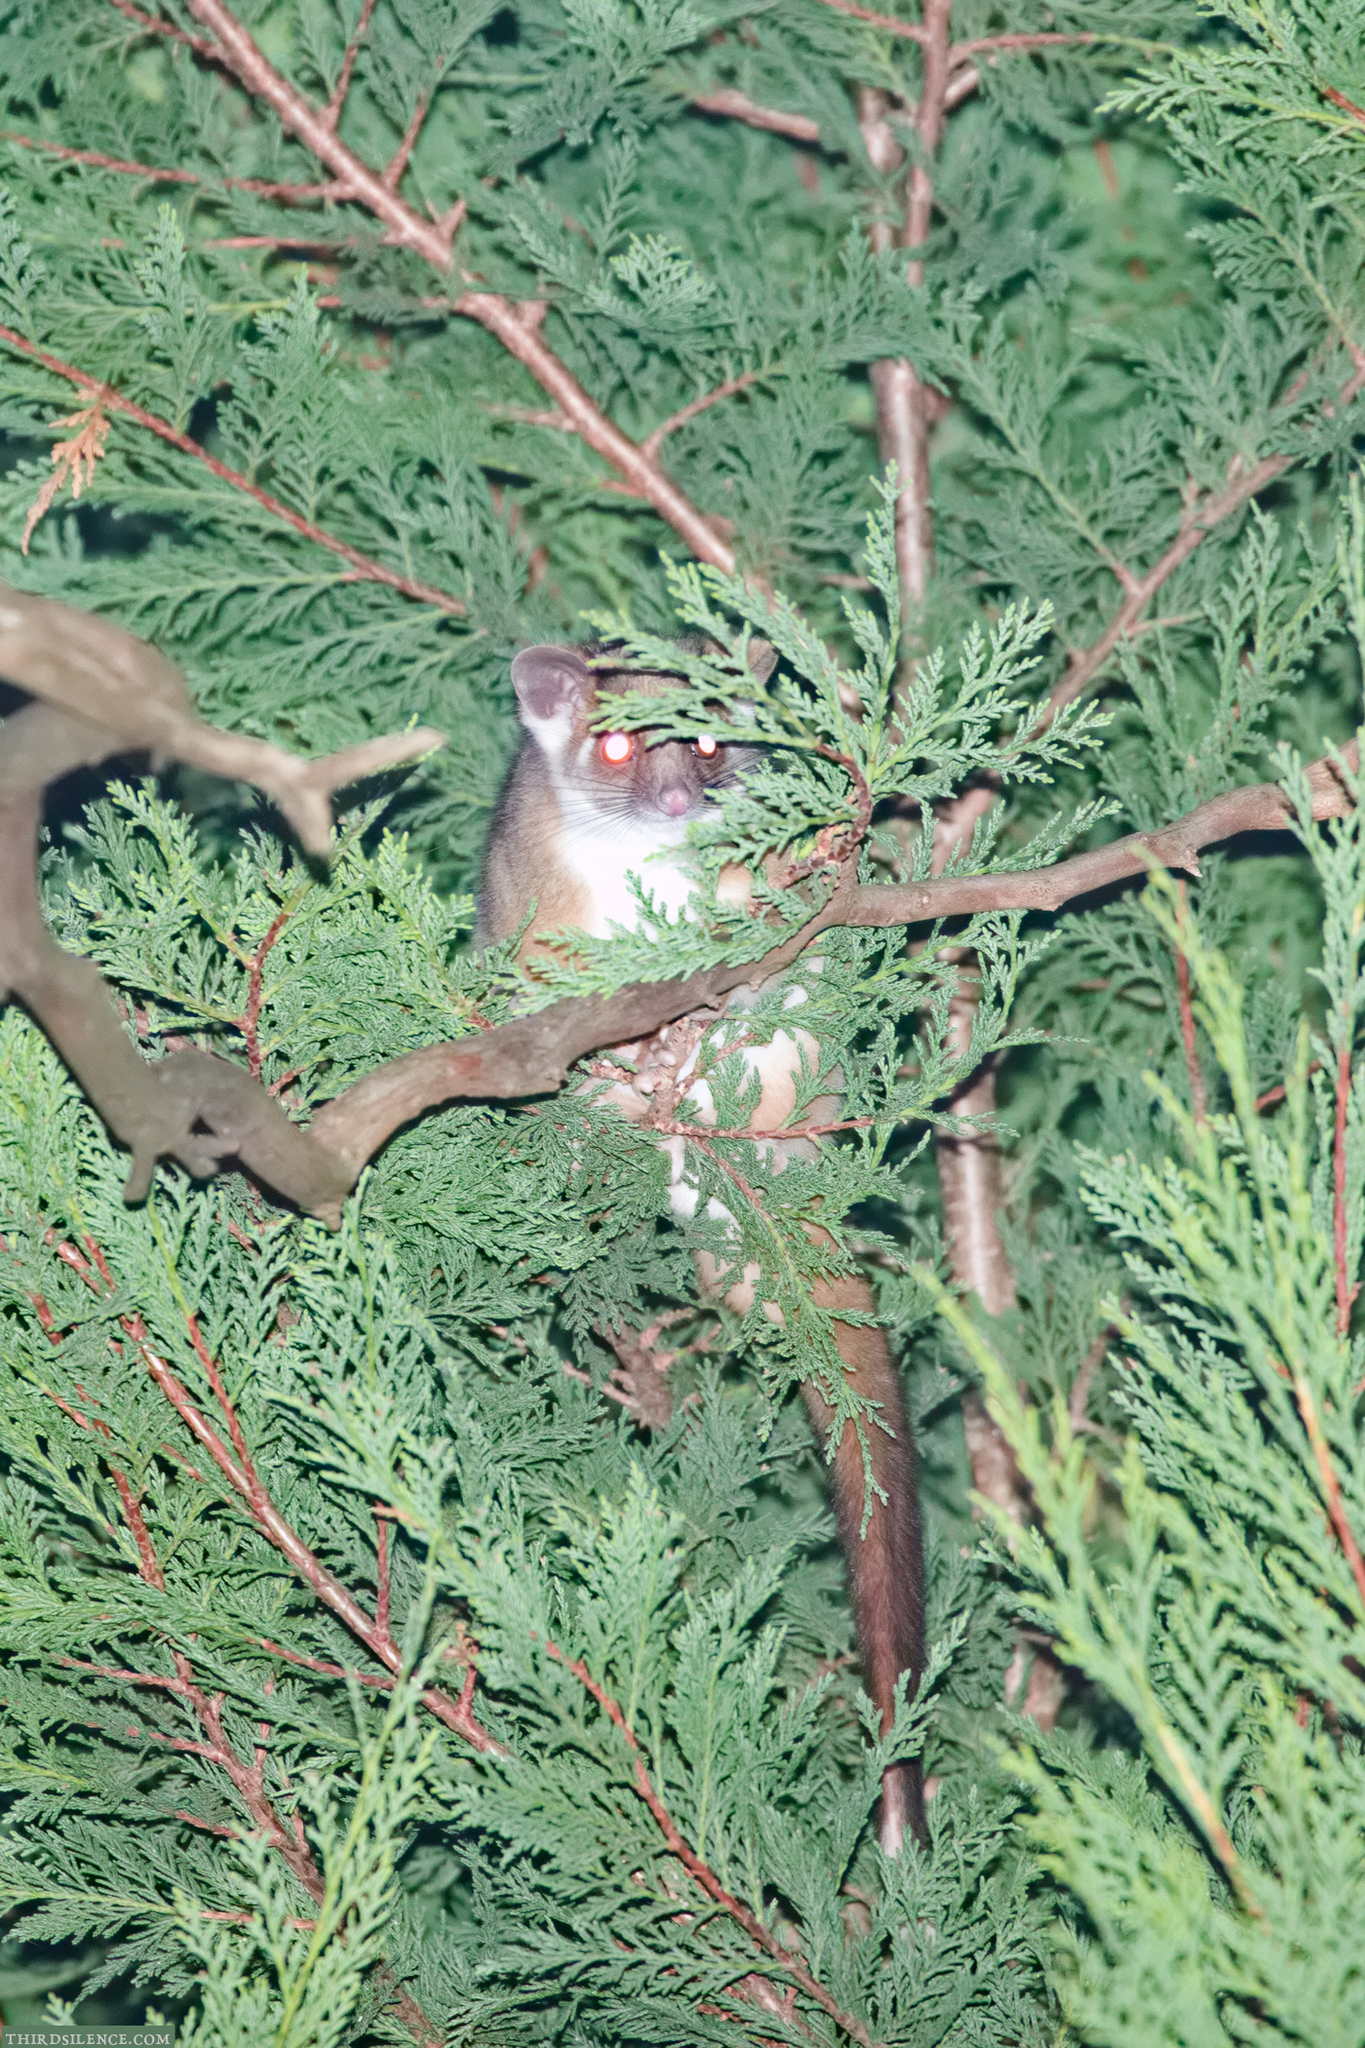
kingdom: Animalia
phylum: Chordata
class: Mammalia
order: Diprotodontia
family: Pseudocheiridae
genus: Pseudocheirus
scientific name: Pseudocheirus peregrinus
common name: Common ringtail possum
